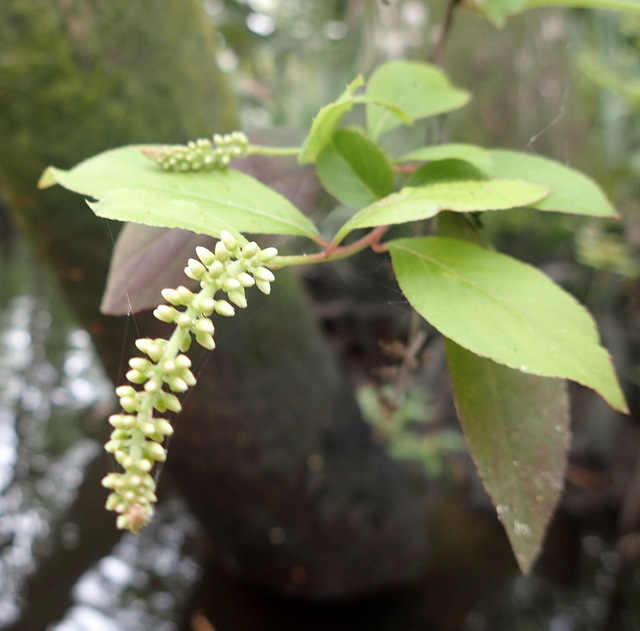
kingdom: Plantae
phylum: Tracheophyta
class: Magnoliopsida
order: Saxifragales
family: Iteaceae
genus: Itea
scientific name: Itea virginica
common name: Sweetspire
